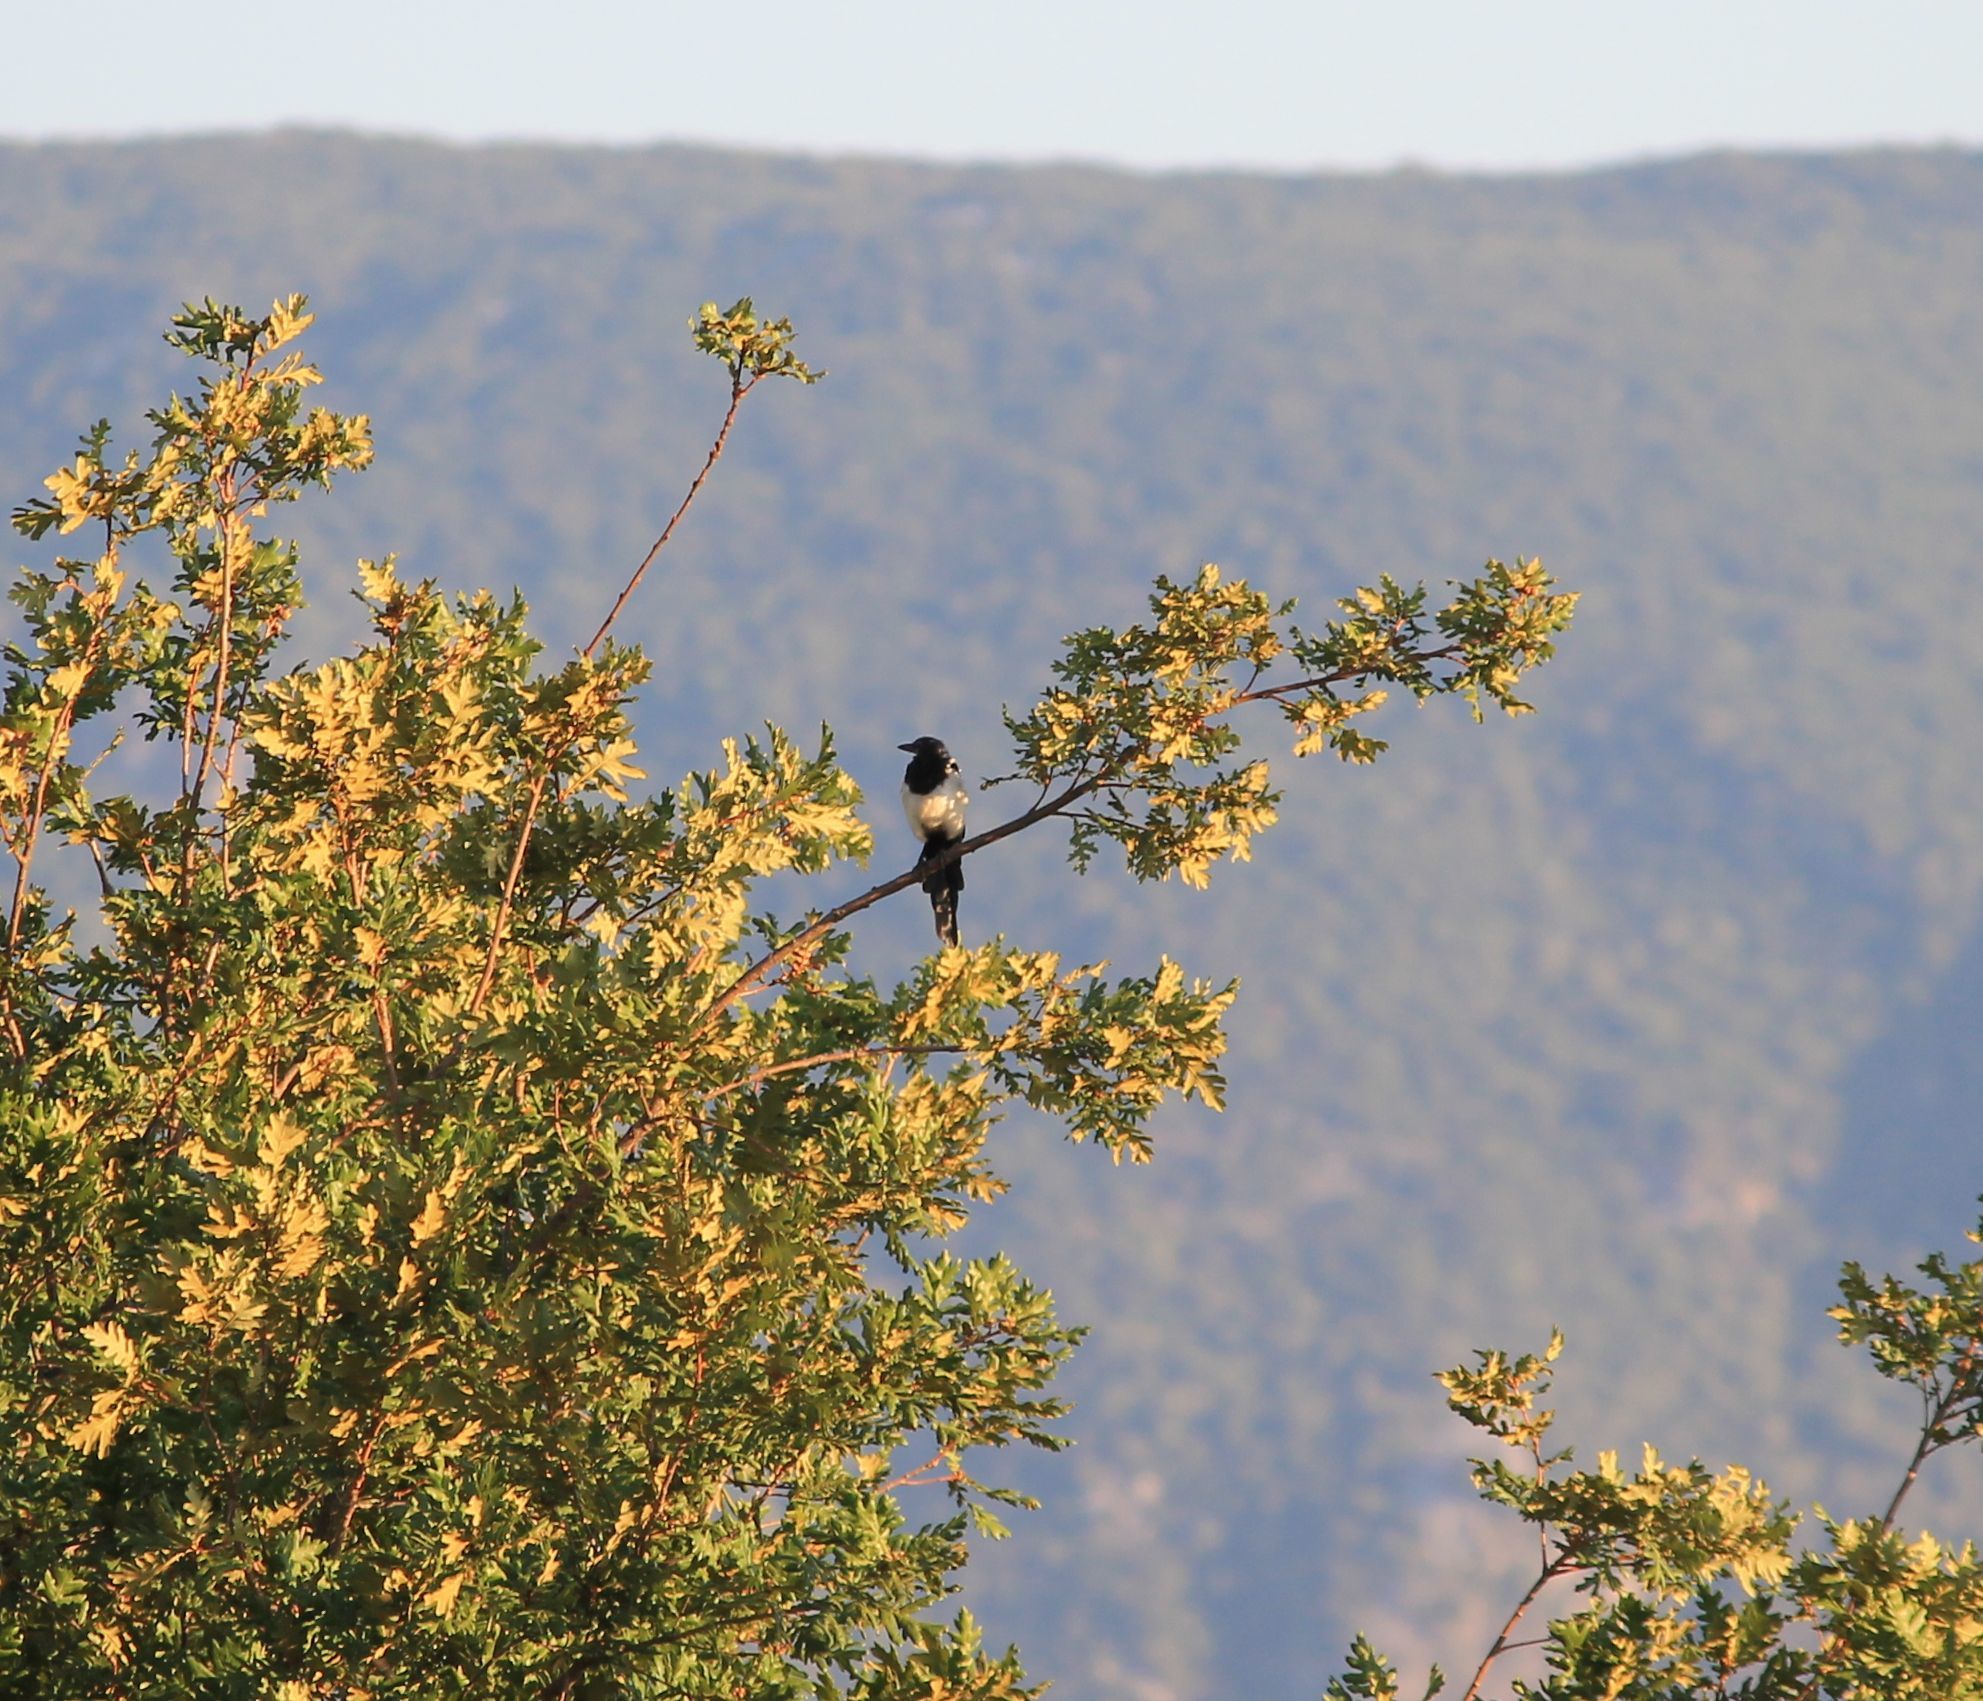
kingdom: Animalia
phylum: Chordata
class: Aves
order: Passeriformes
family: Corvidae
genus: Pica
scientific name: Pica pica
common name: Eurasian magpie
